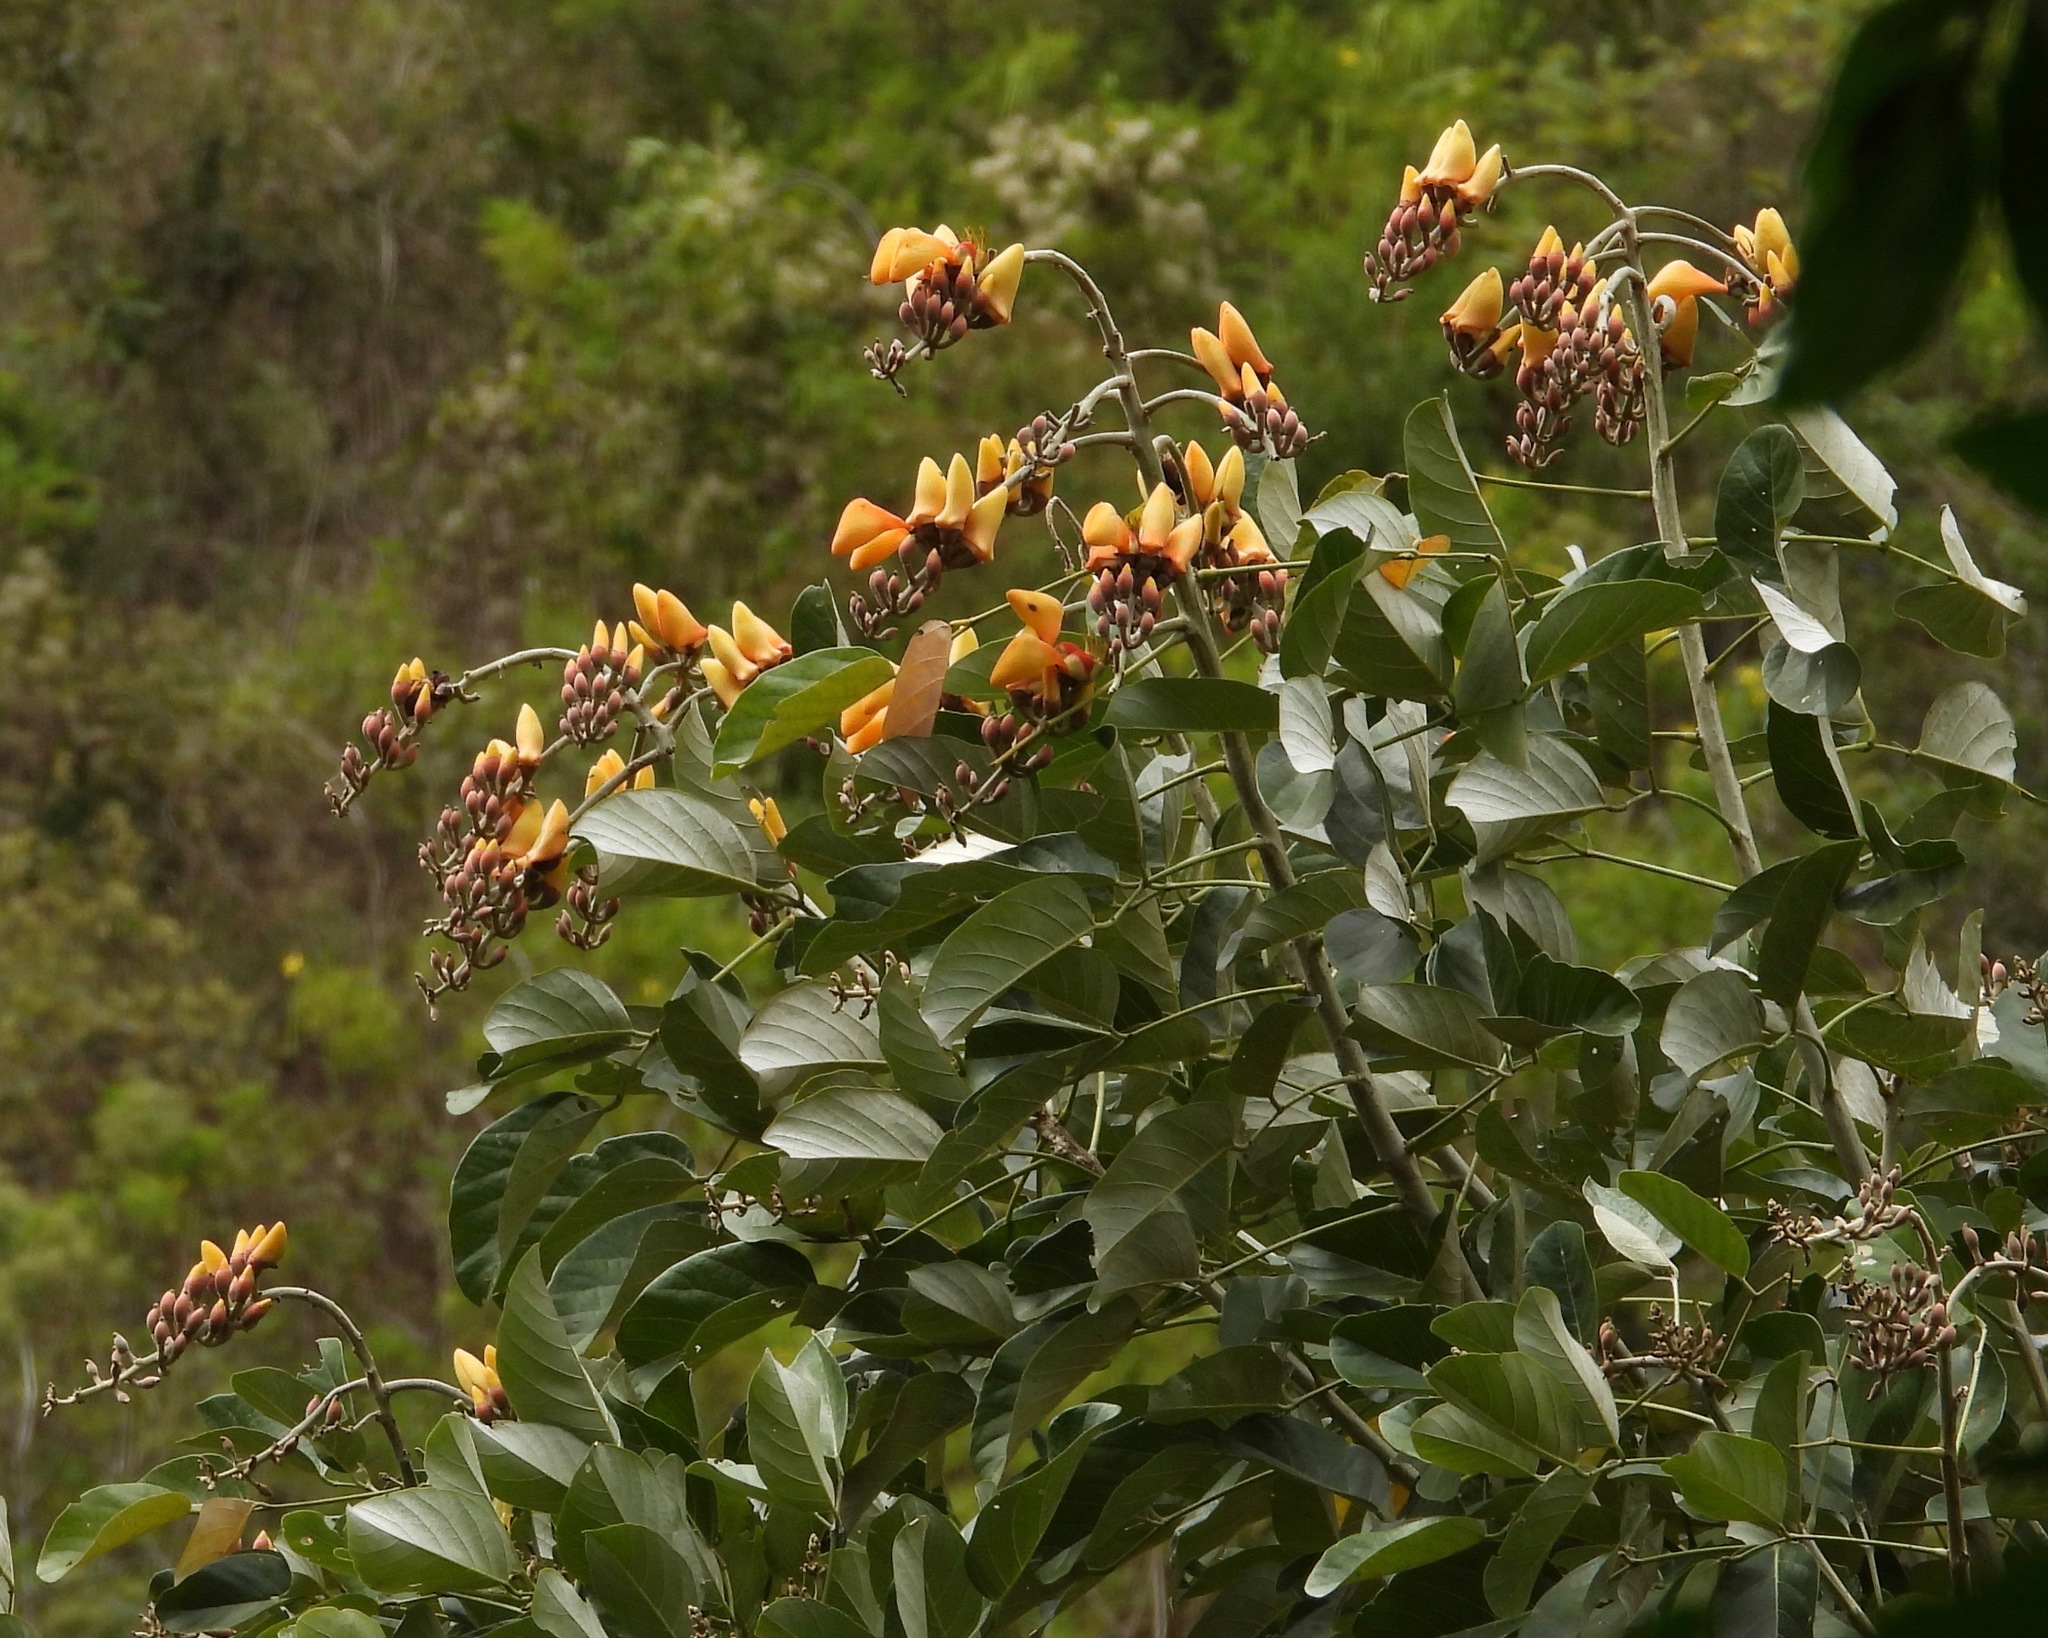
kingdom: Plantae
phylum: Tracheophyta
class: Magnoliopsida
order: Fabales
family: Fabaceae
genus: Erythrina
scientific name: Erythrina fusca
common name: Coral-bean
